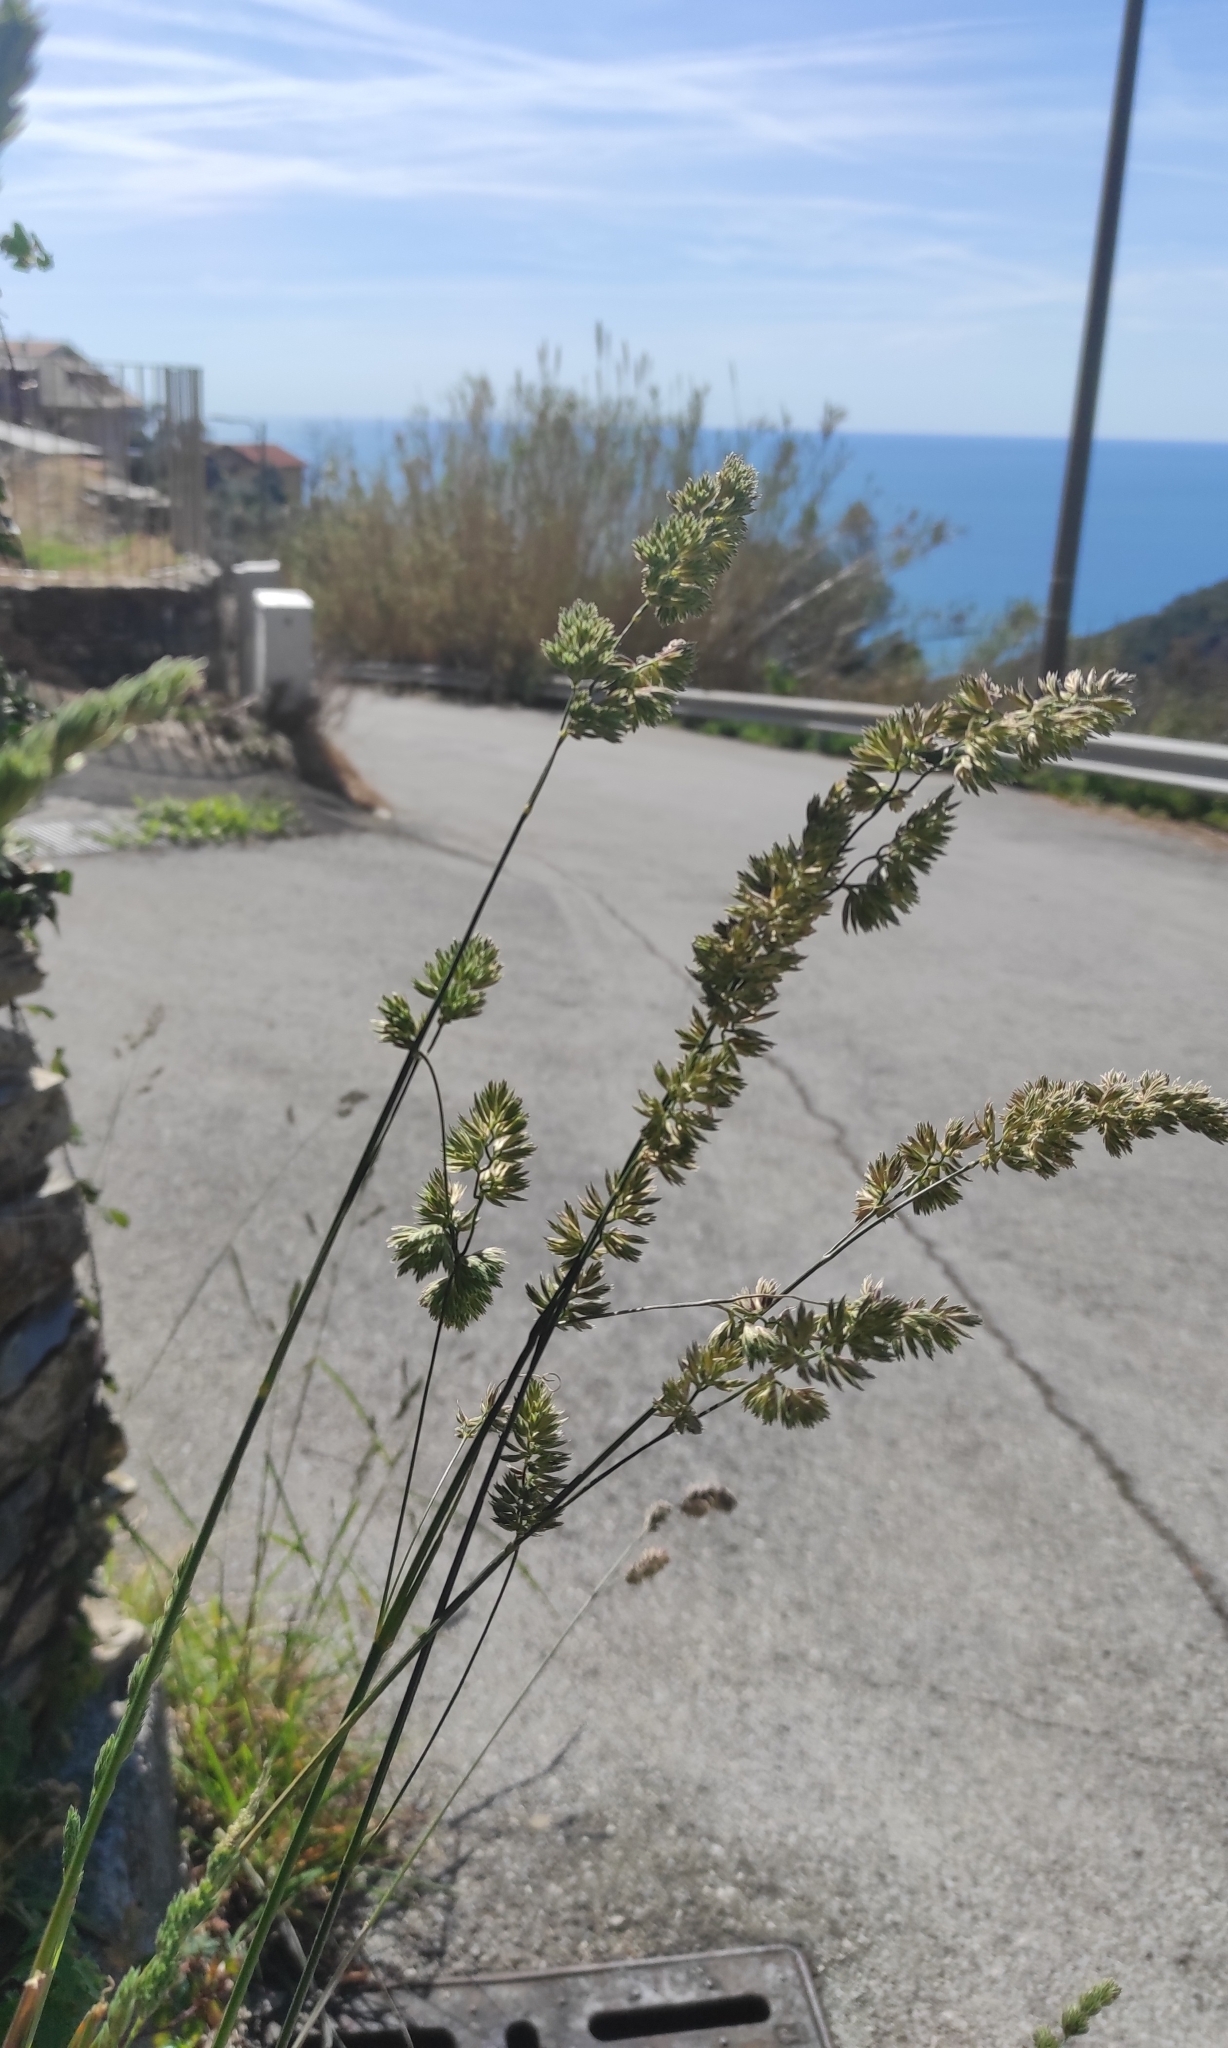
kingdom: Plantae
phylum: Tracheophyta
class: Liliopsida
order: Poales
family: Poaceae
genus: Dactylis
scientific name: Dactylis glomerata
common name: Orchardgrass
